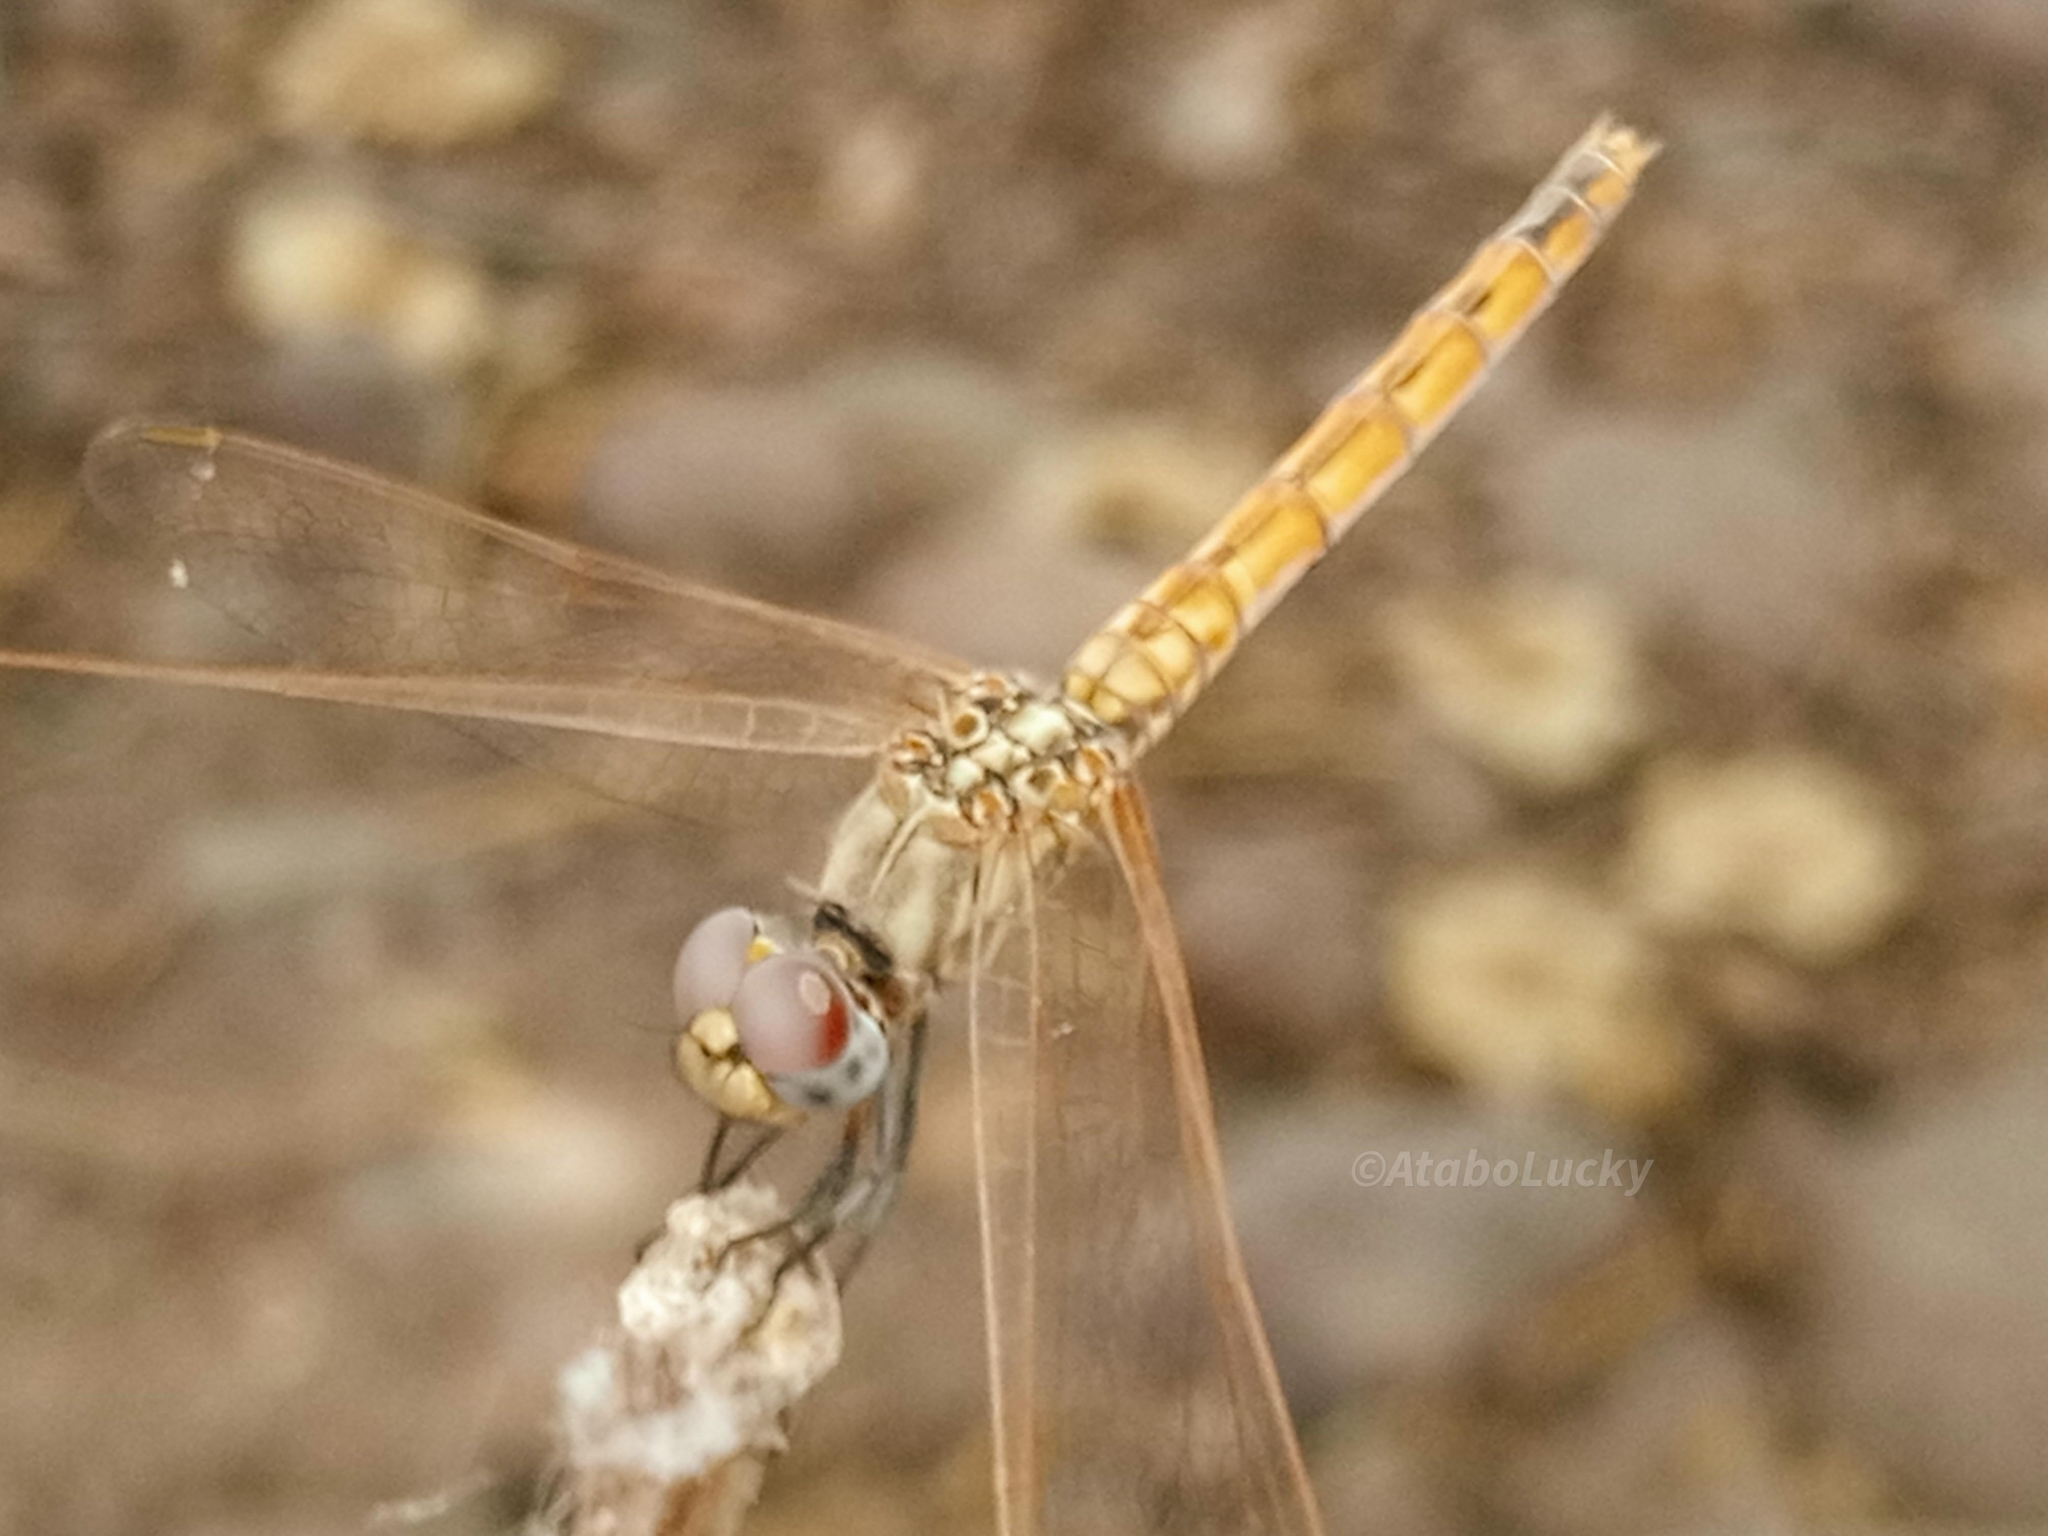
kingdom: Animalia
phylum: Arthropoda
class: Insecta
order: Odonata
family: Libellulidae
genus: Trithemis
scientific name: Trithemis arteriosa
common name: Red-veined dropwing
